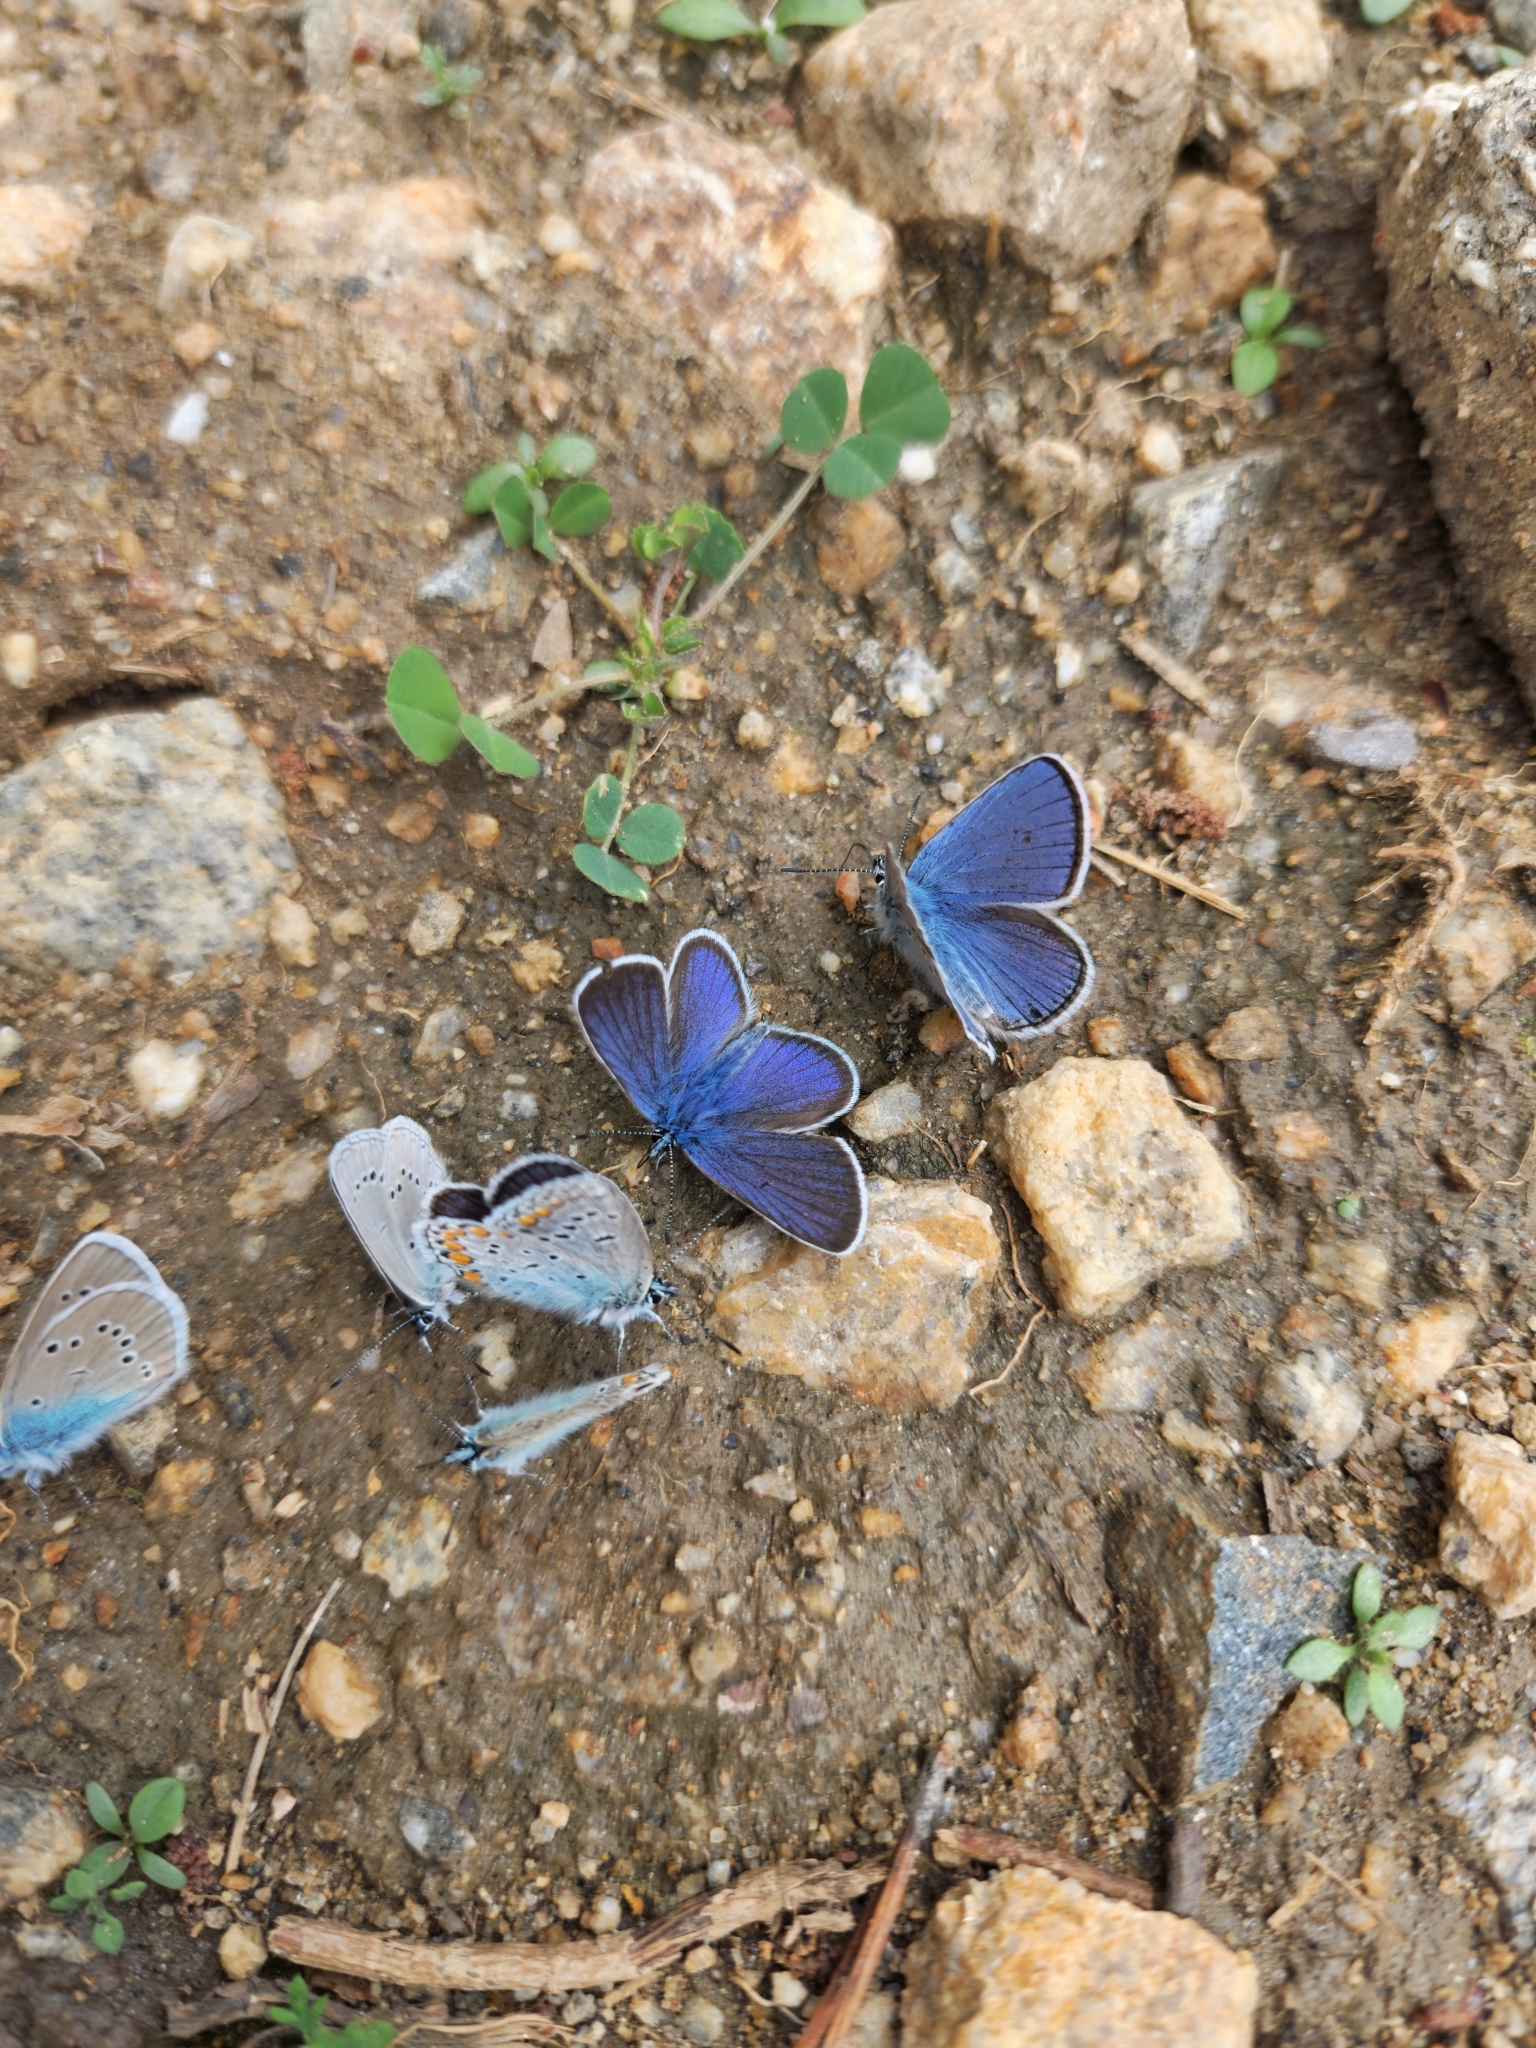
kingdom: Animalia
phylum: Arthropoda
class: Insecta
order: Lepidoptera
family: Lycaenidae
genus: Polyommatus
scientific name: Polyommatus icarus
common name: Common blue
